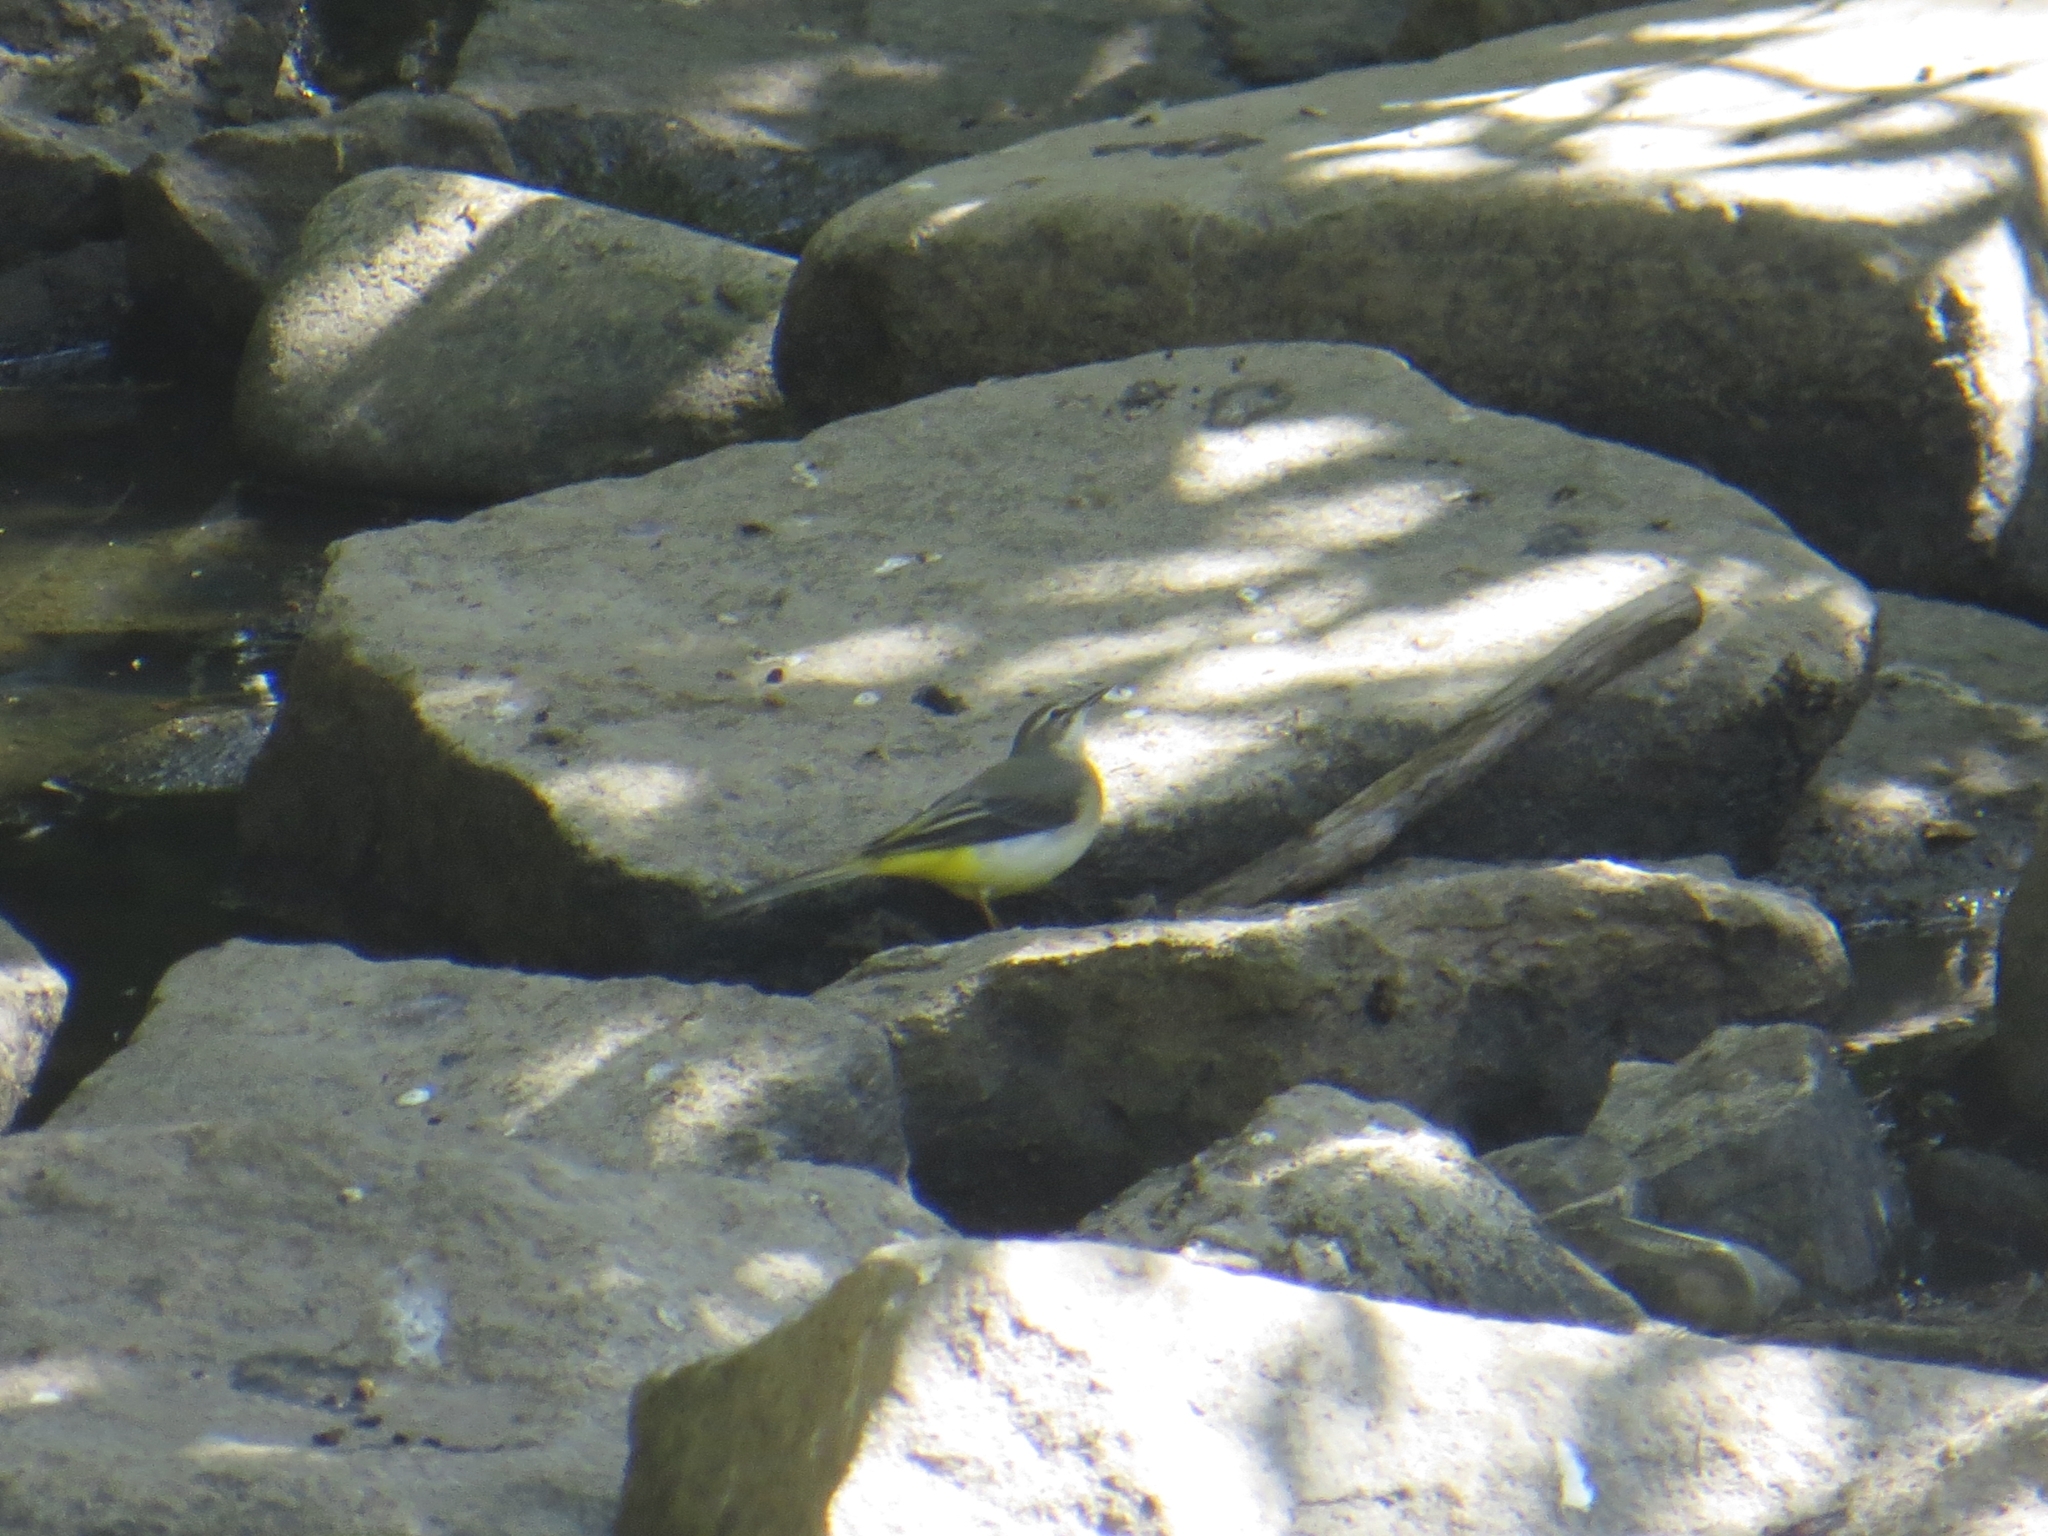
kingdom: Animalia
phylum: Chordata
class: Aves
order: Passeriformes
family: Motacillidae
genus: Motacilla
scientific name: Motacilla cinerea
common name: Grey wagtail
